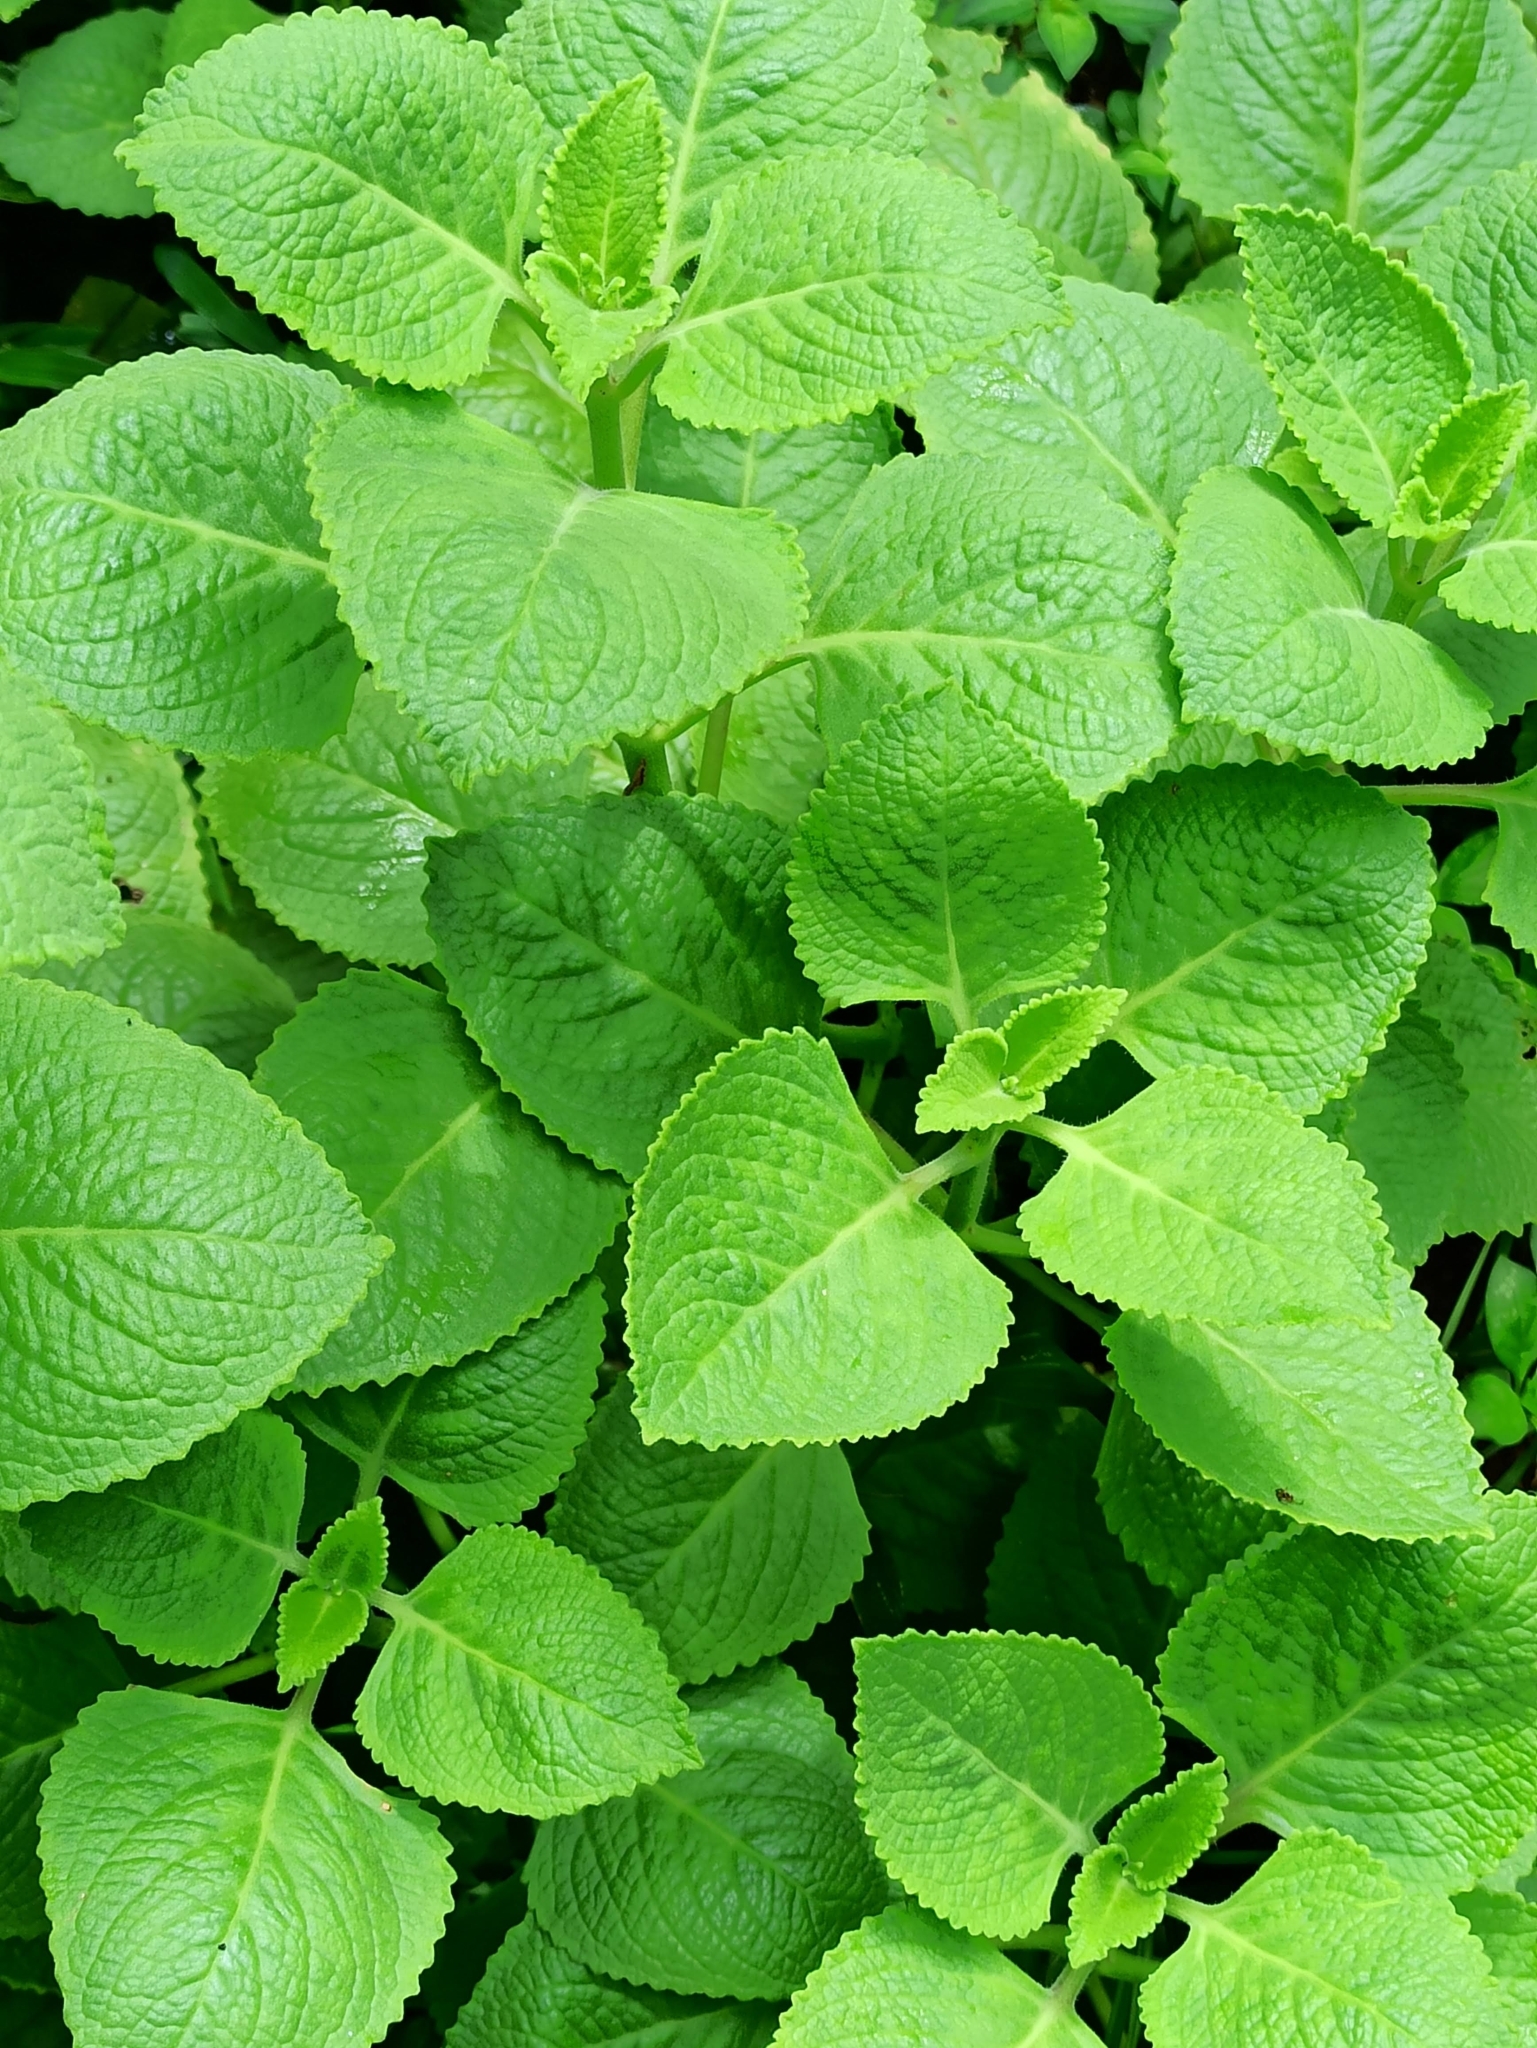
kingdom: Plantae
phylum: Tracheophyta
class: Magnoliopsida
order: Lamiales
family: Lamiaceae
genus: Coleus
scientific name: Coleus amboinicus
